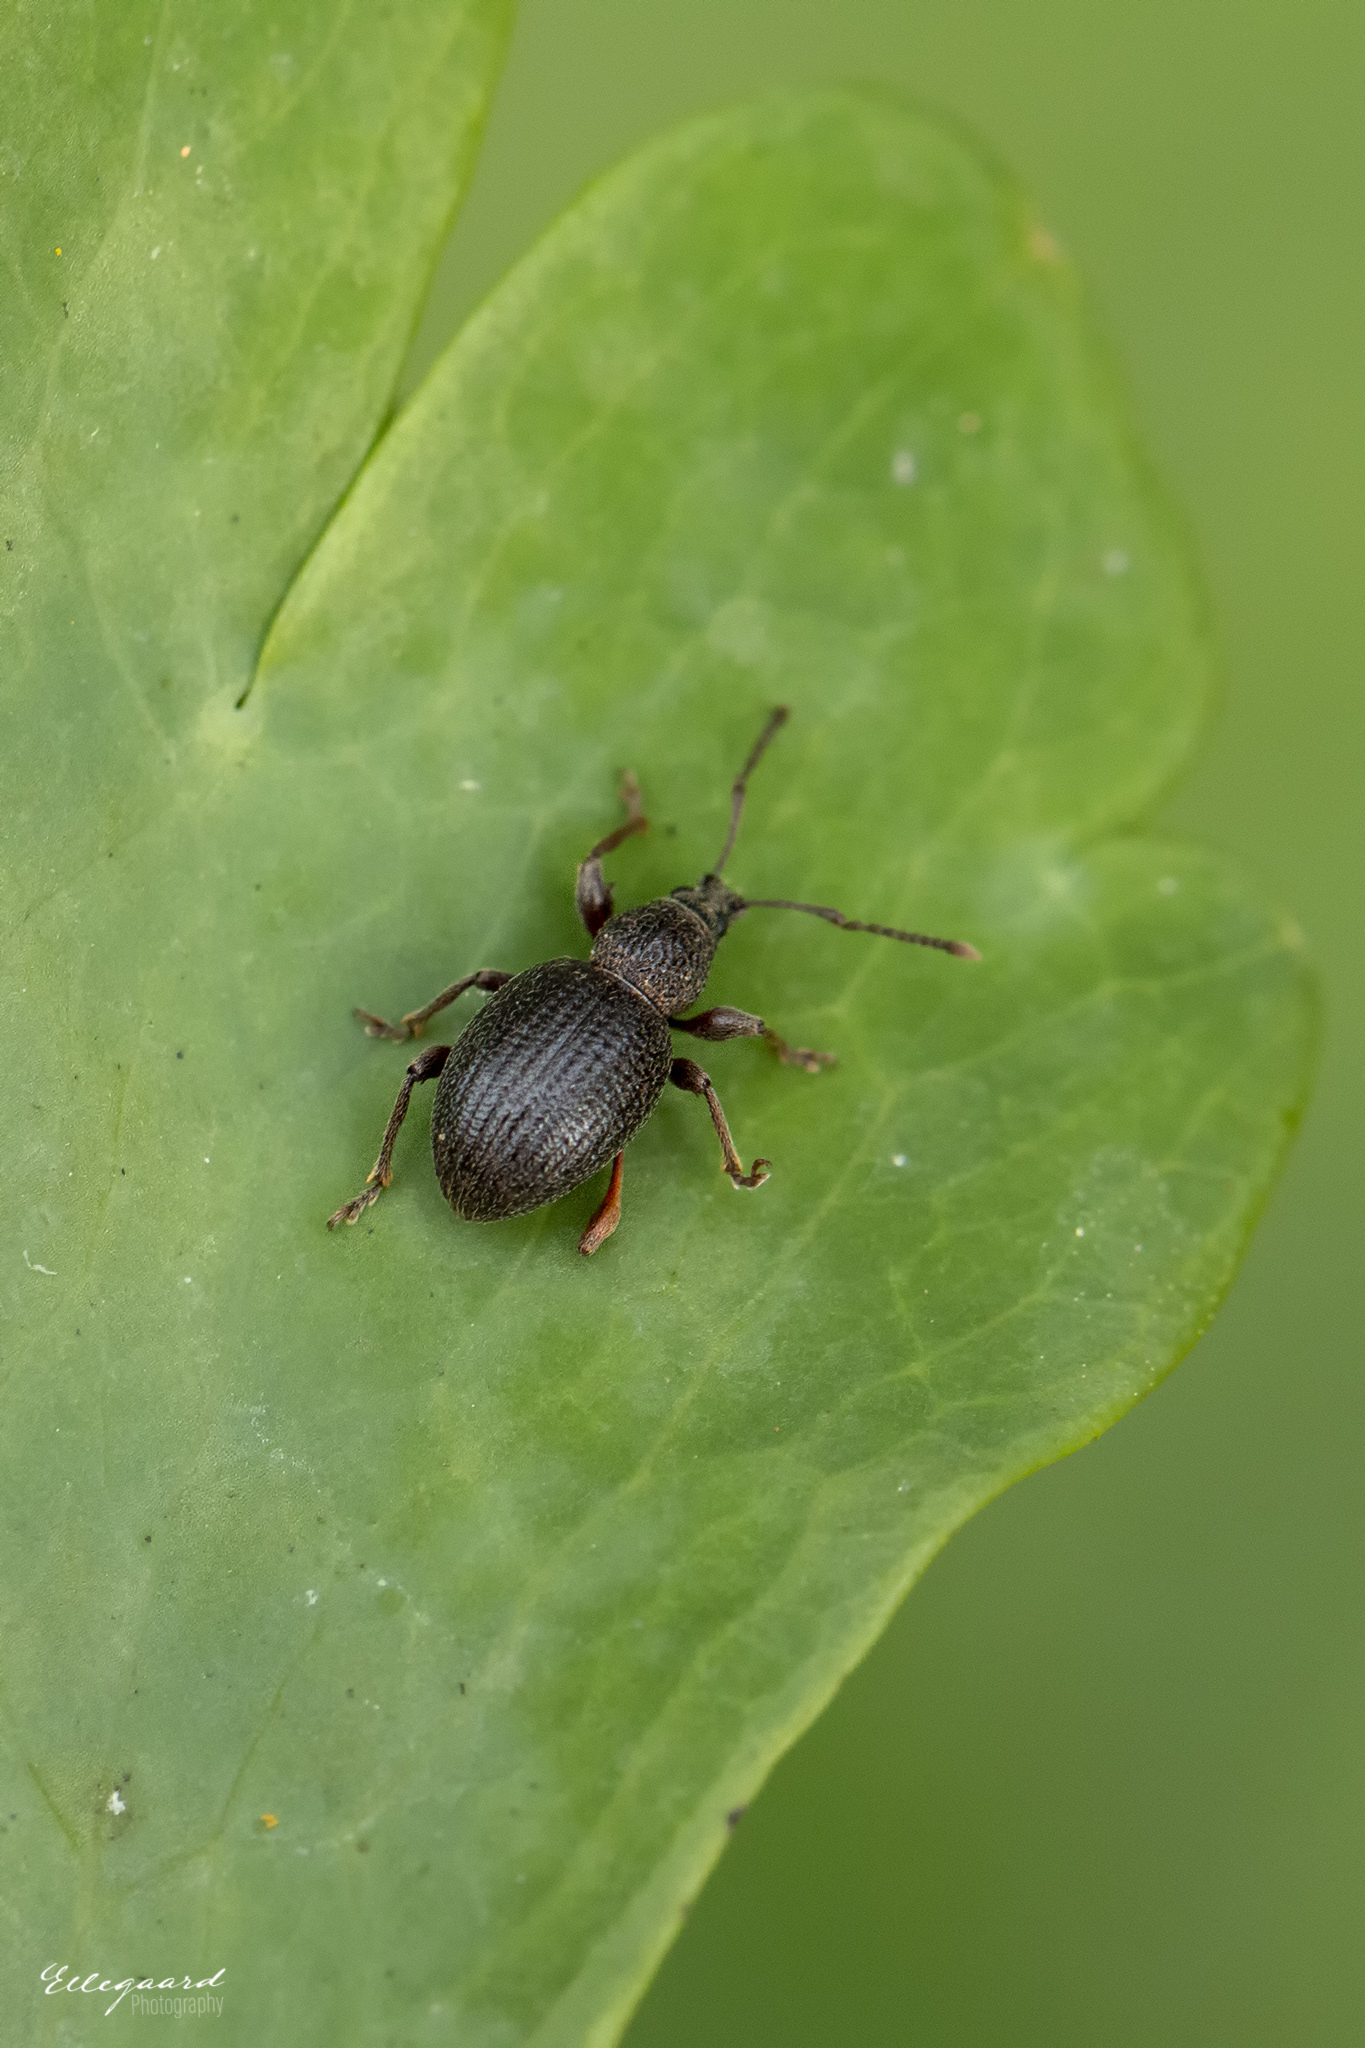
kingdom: Animalia
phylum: Arthropoda
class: Insecta
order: Coleoptera
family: Curculionidae
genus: Otiorhynchus
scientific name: Otiorhynchus ovatus
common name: Strawberry root weevil
